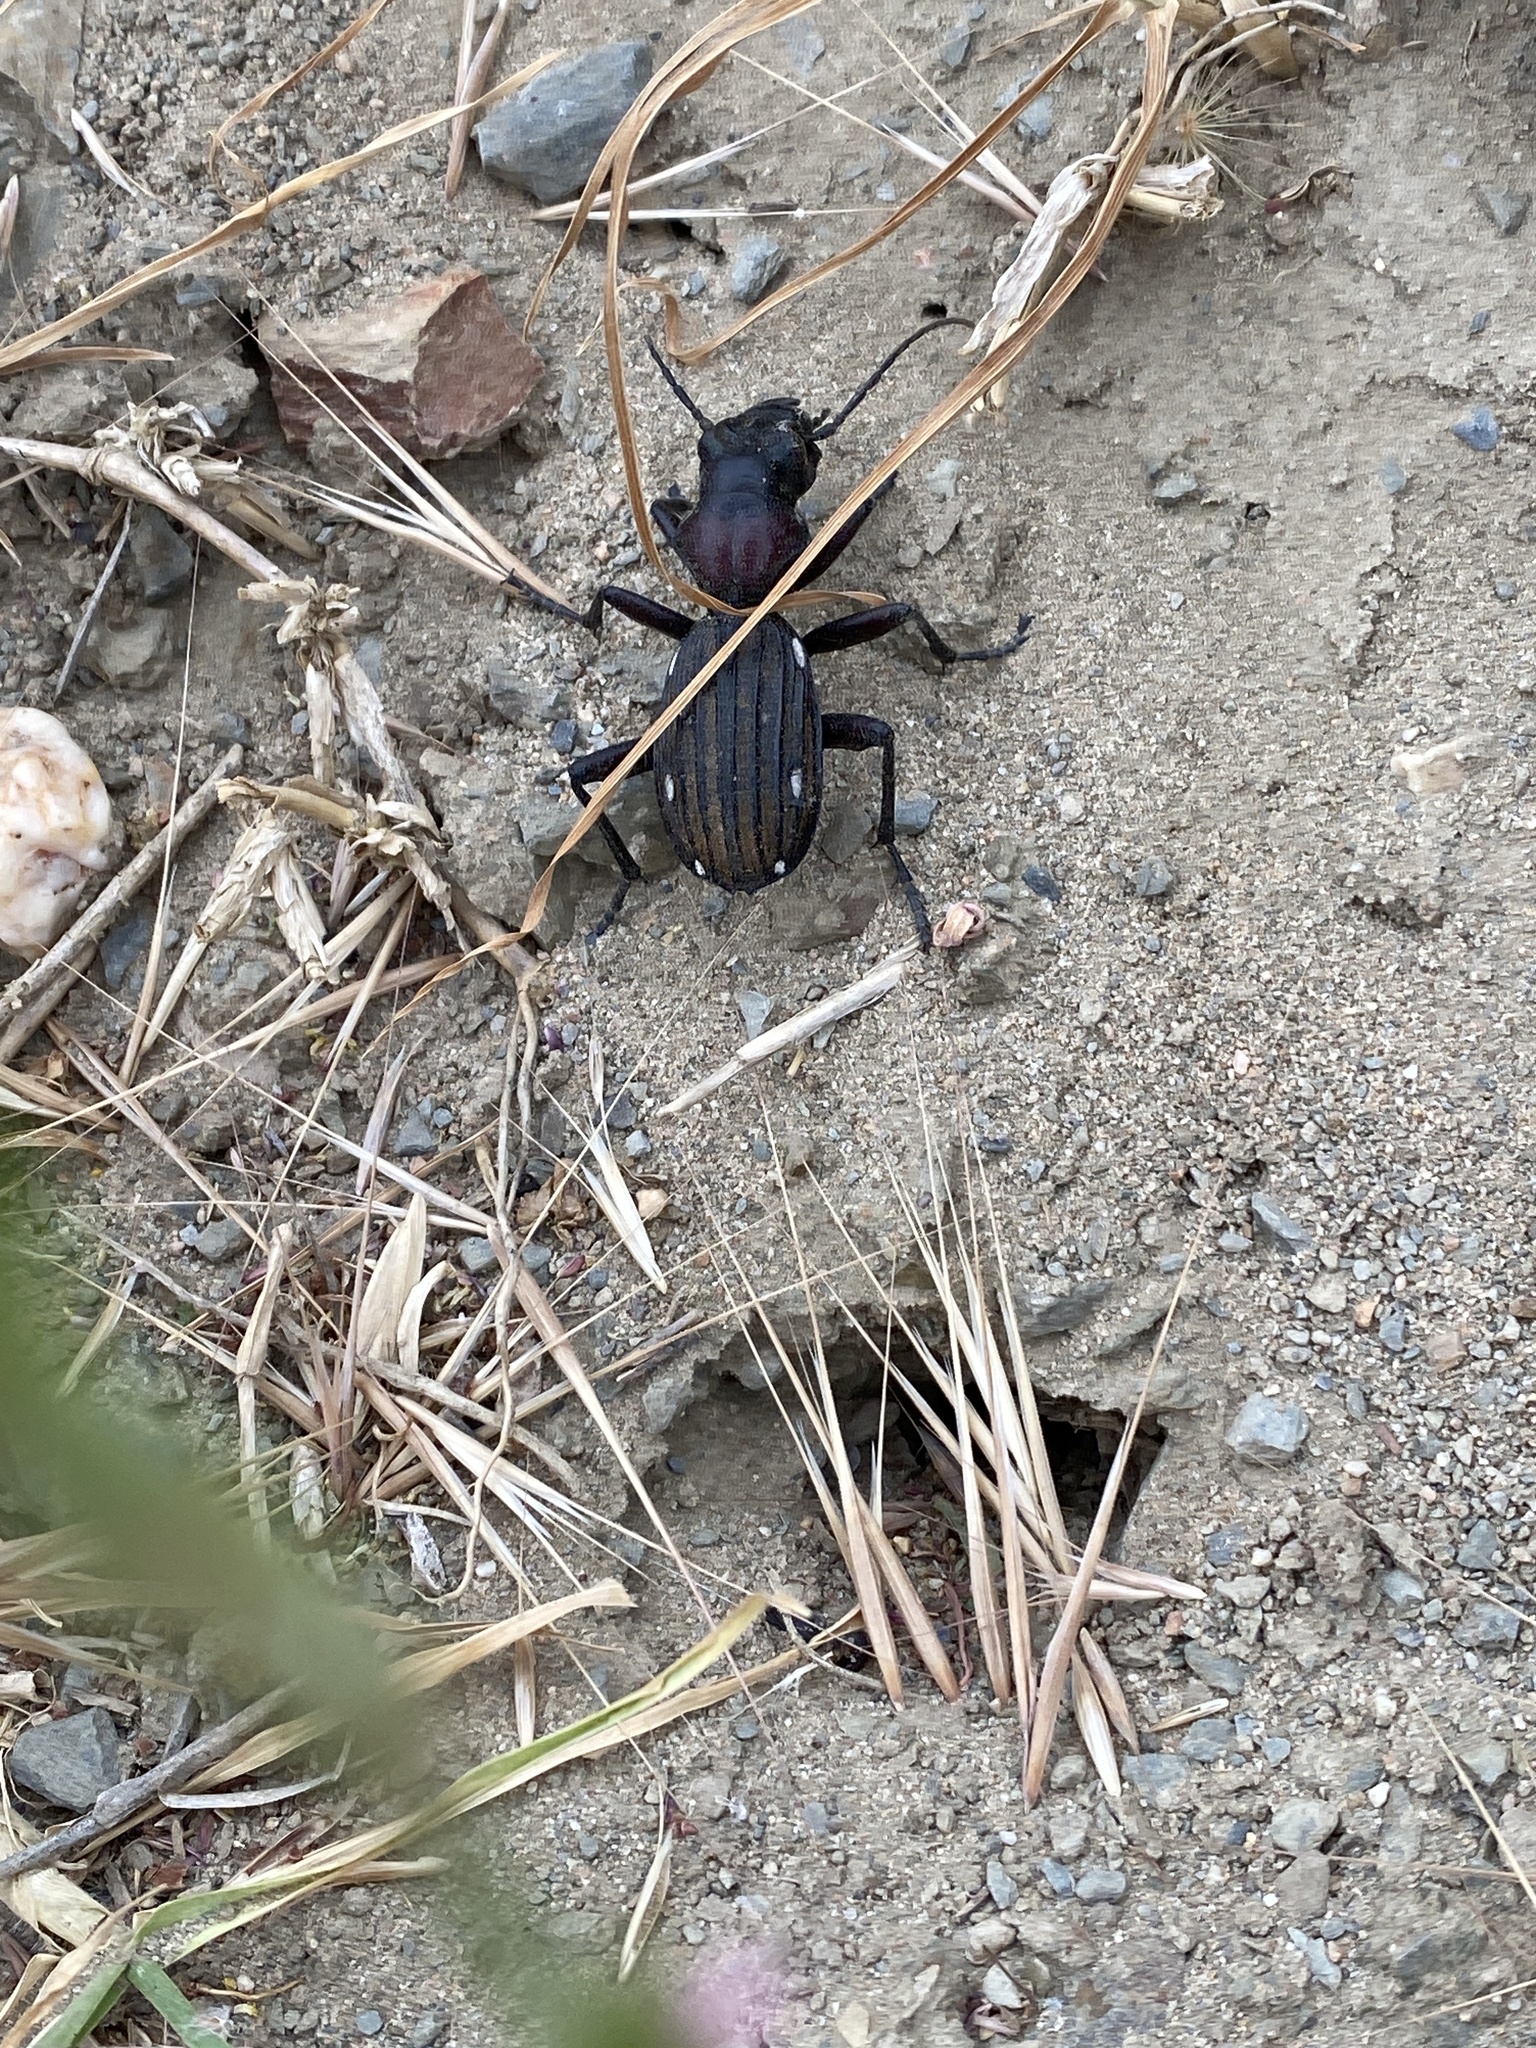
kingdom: Animalia
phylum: Arthropoda
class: Insecta
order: Coleoptera
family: Carabidae
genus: Anthia
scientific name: Anthia decemguttata
